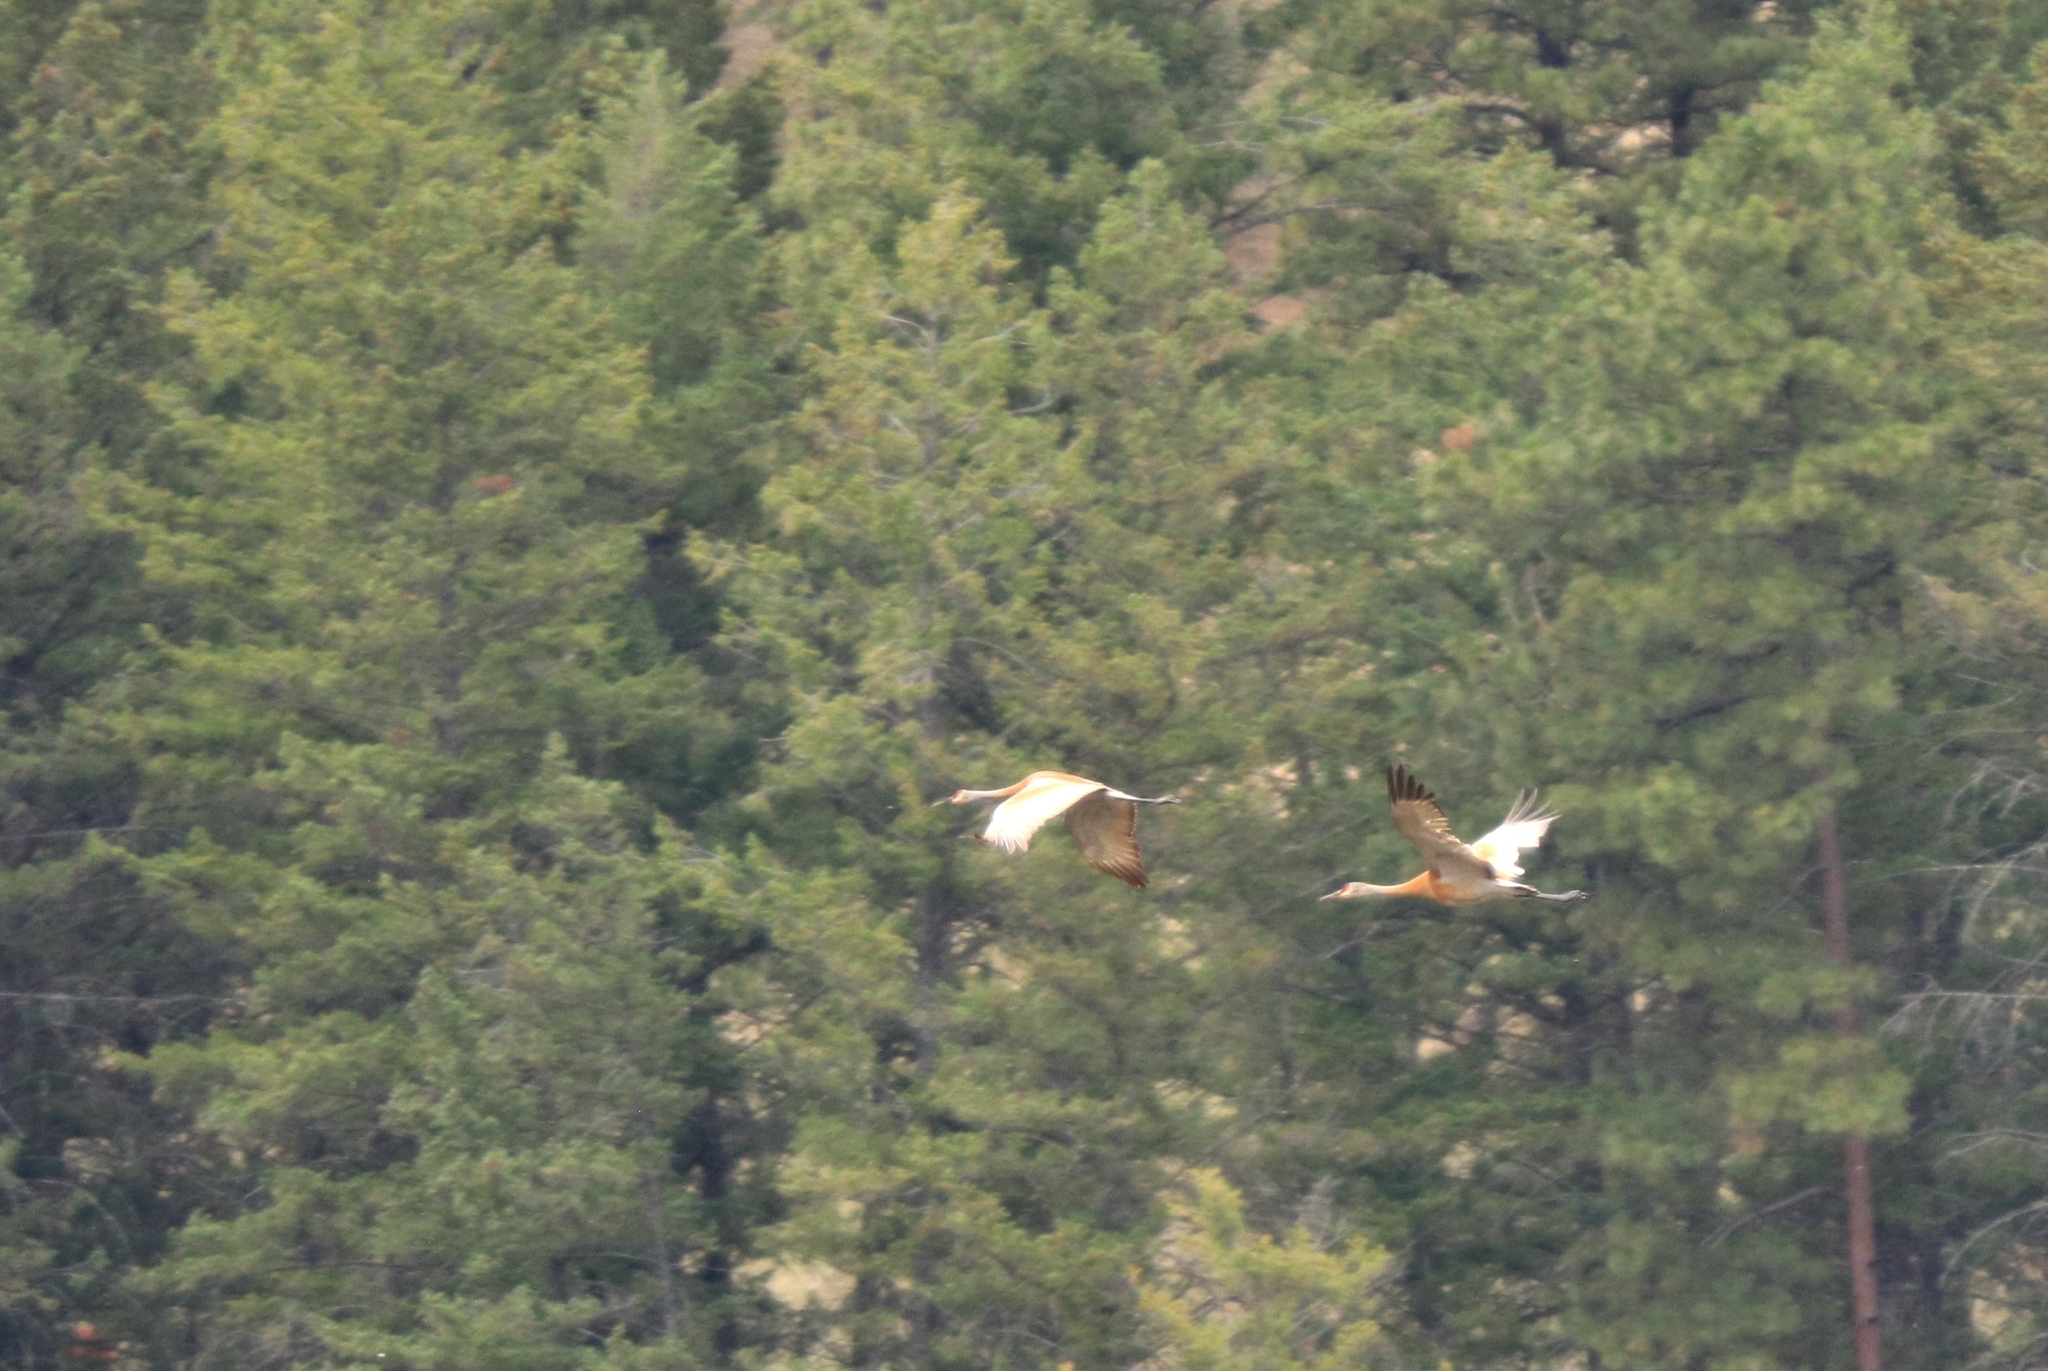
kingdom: Animalia
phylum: Chordata
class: Aves
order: Gruiformes
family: Gruidae
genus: Grus
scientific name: Grus canadensis
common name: Sandhill crane
